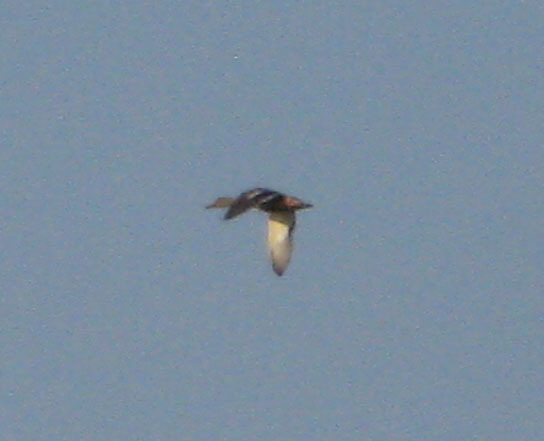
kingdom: Animalia
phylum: Chordata
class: Aves
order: Anseriformes
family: Anatidae
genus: Anas
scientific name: Anas platyrhynchos
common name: Mallard
